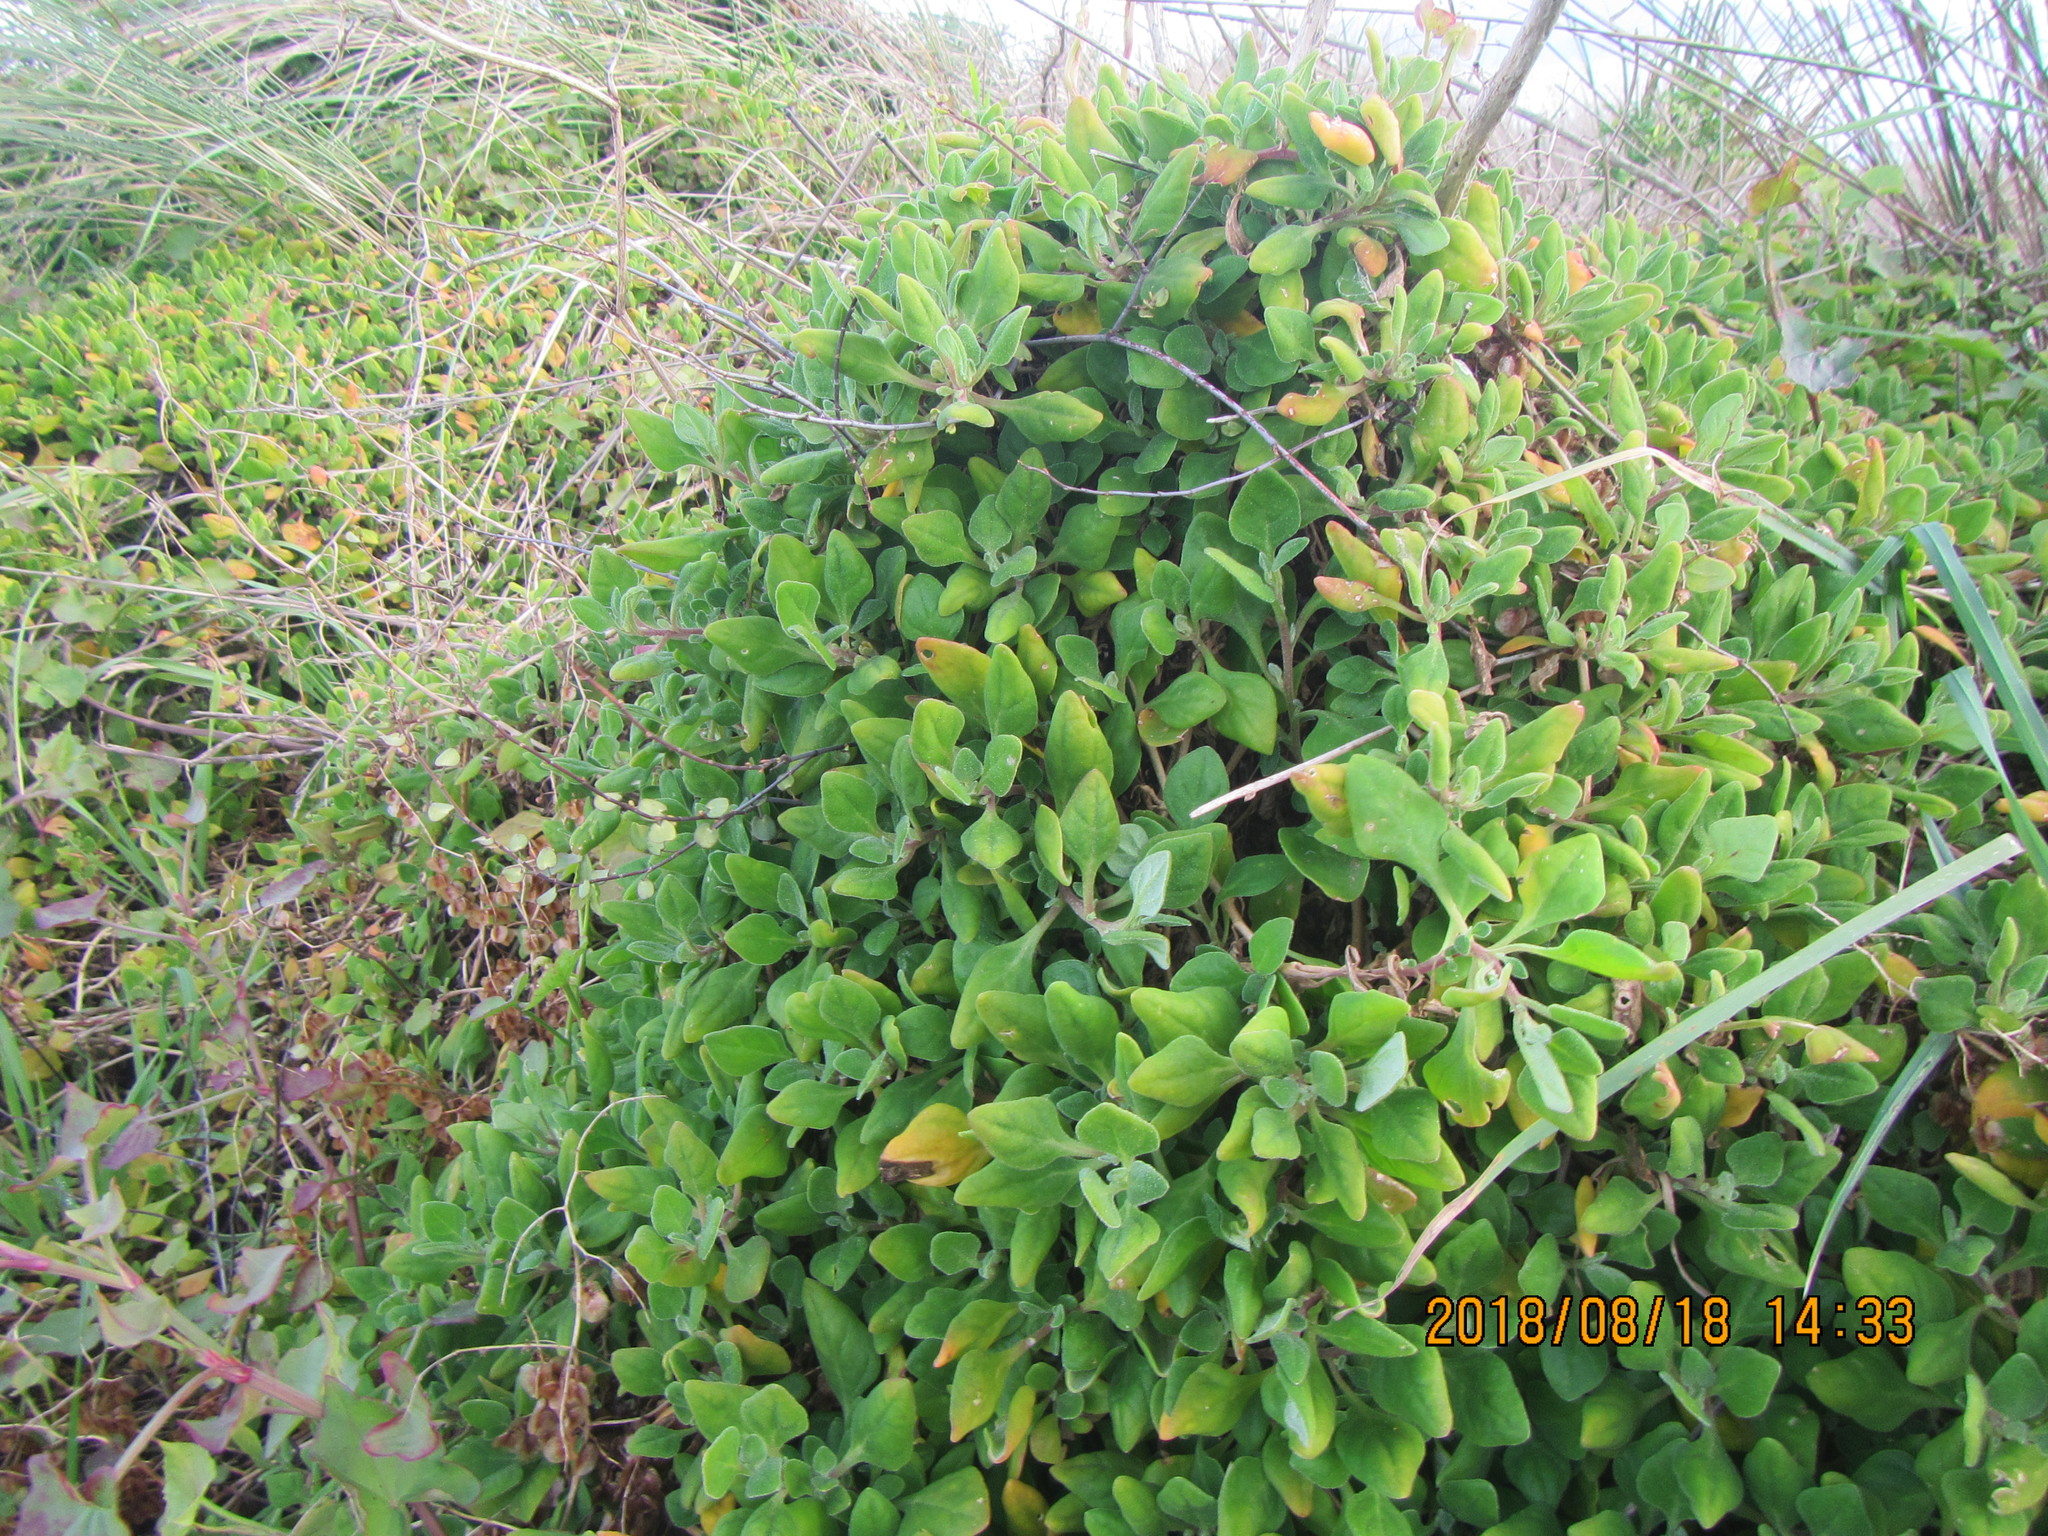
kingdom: Plantae
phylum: Tracheophyta
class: Magnoliopsida
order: Caryophyllales
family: Aizoaceae
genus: Tetragonia
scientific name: Tetragonia implexicoma
